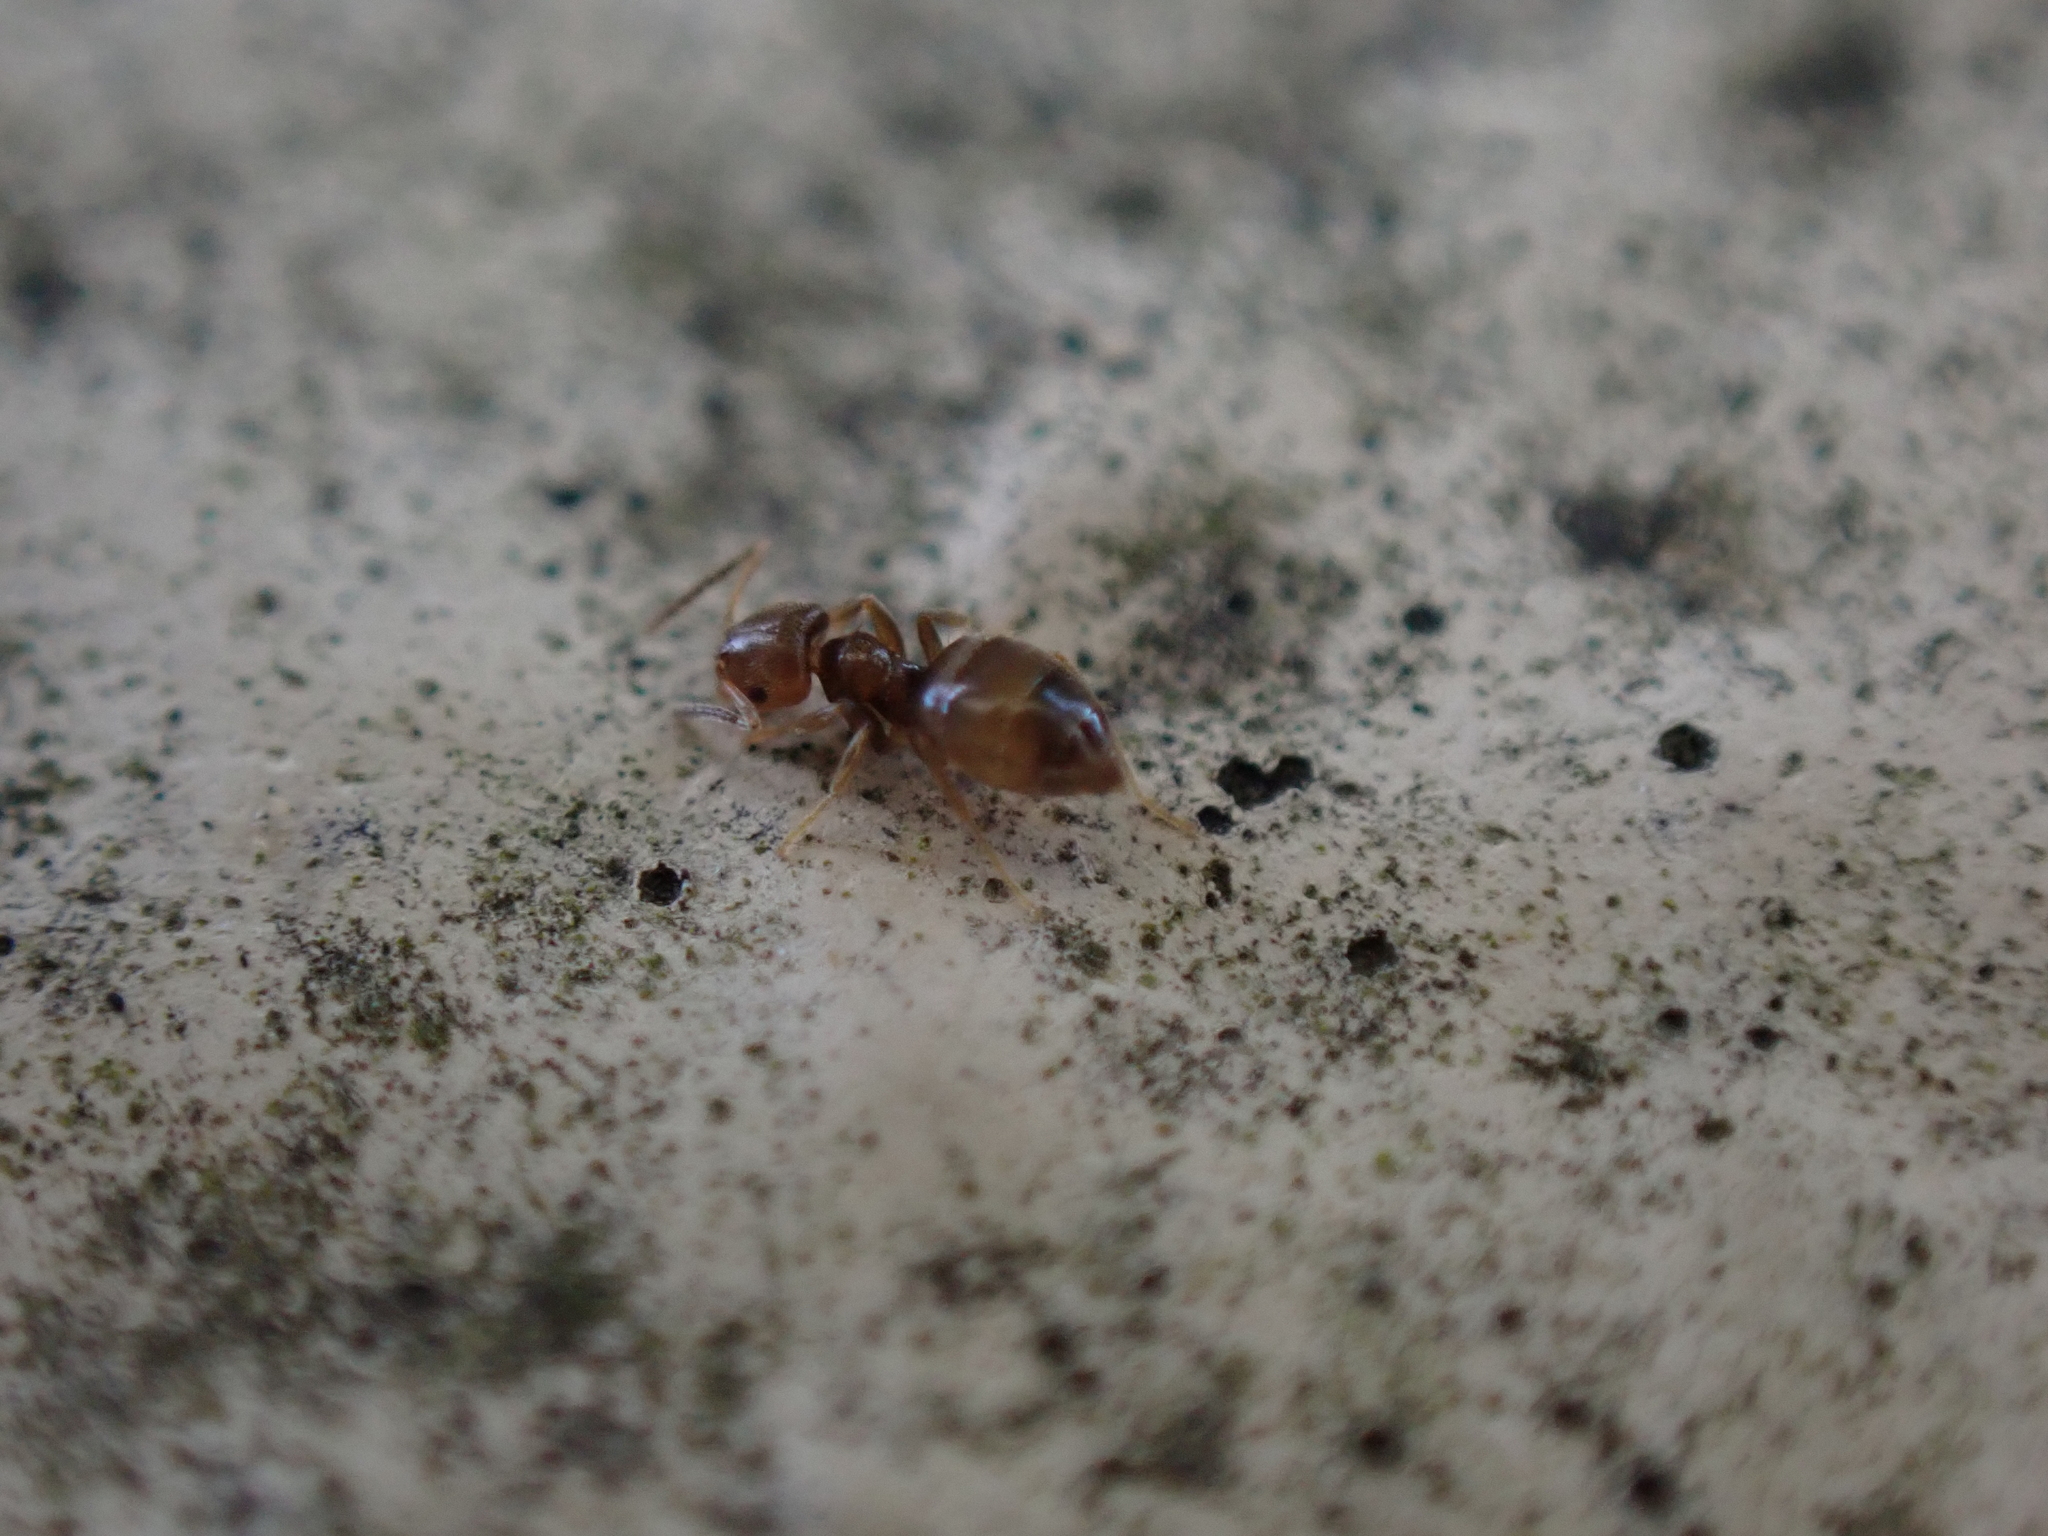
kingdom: Animalia
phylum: Arthropoda
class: Insecta
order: Hymenoptera
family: Formicidae
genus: Brachymyrmex
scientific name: Brachymyrmex obscurior
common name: Obscure rover ant
